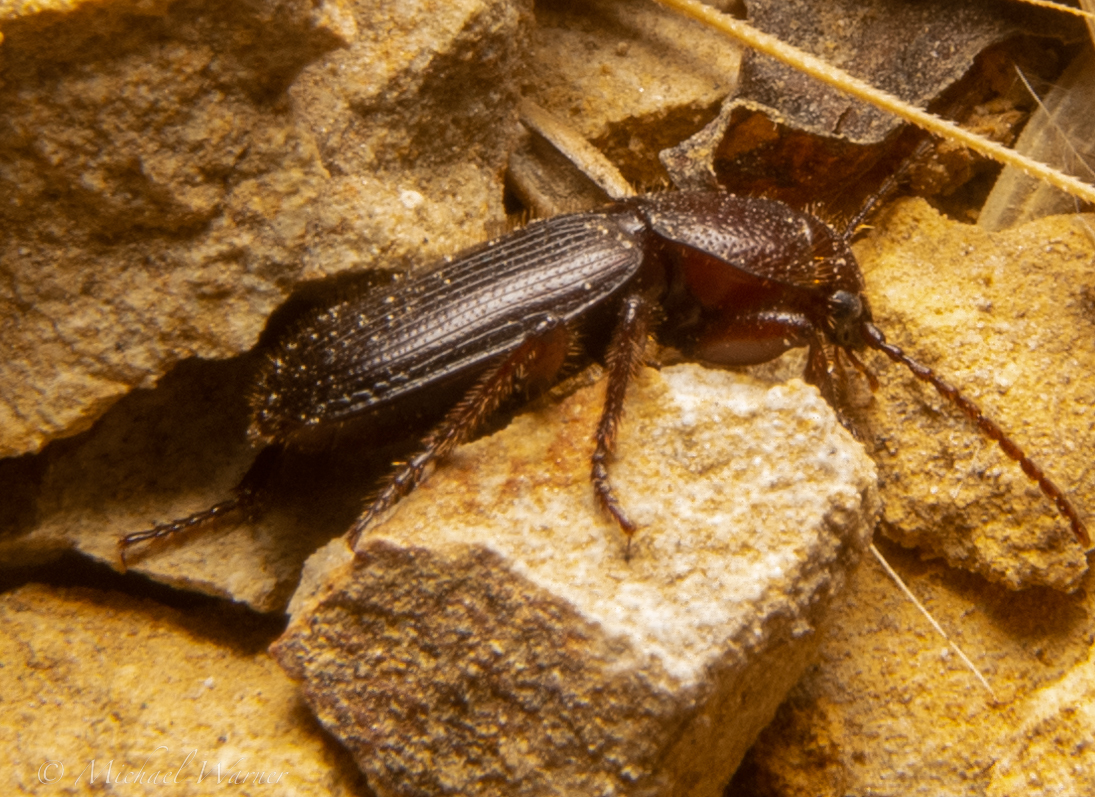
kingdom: Animalia
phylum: Arthropoda
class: Insecta
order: Coleoptera
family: Carabidae
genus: Dicheirus
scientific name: Dicheirus dilatatus
